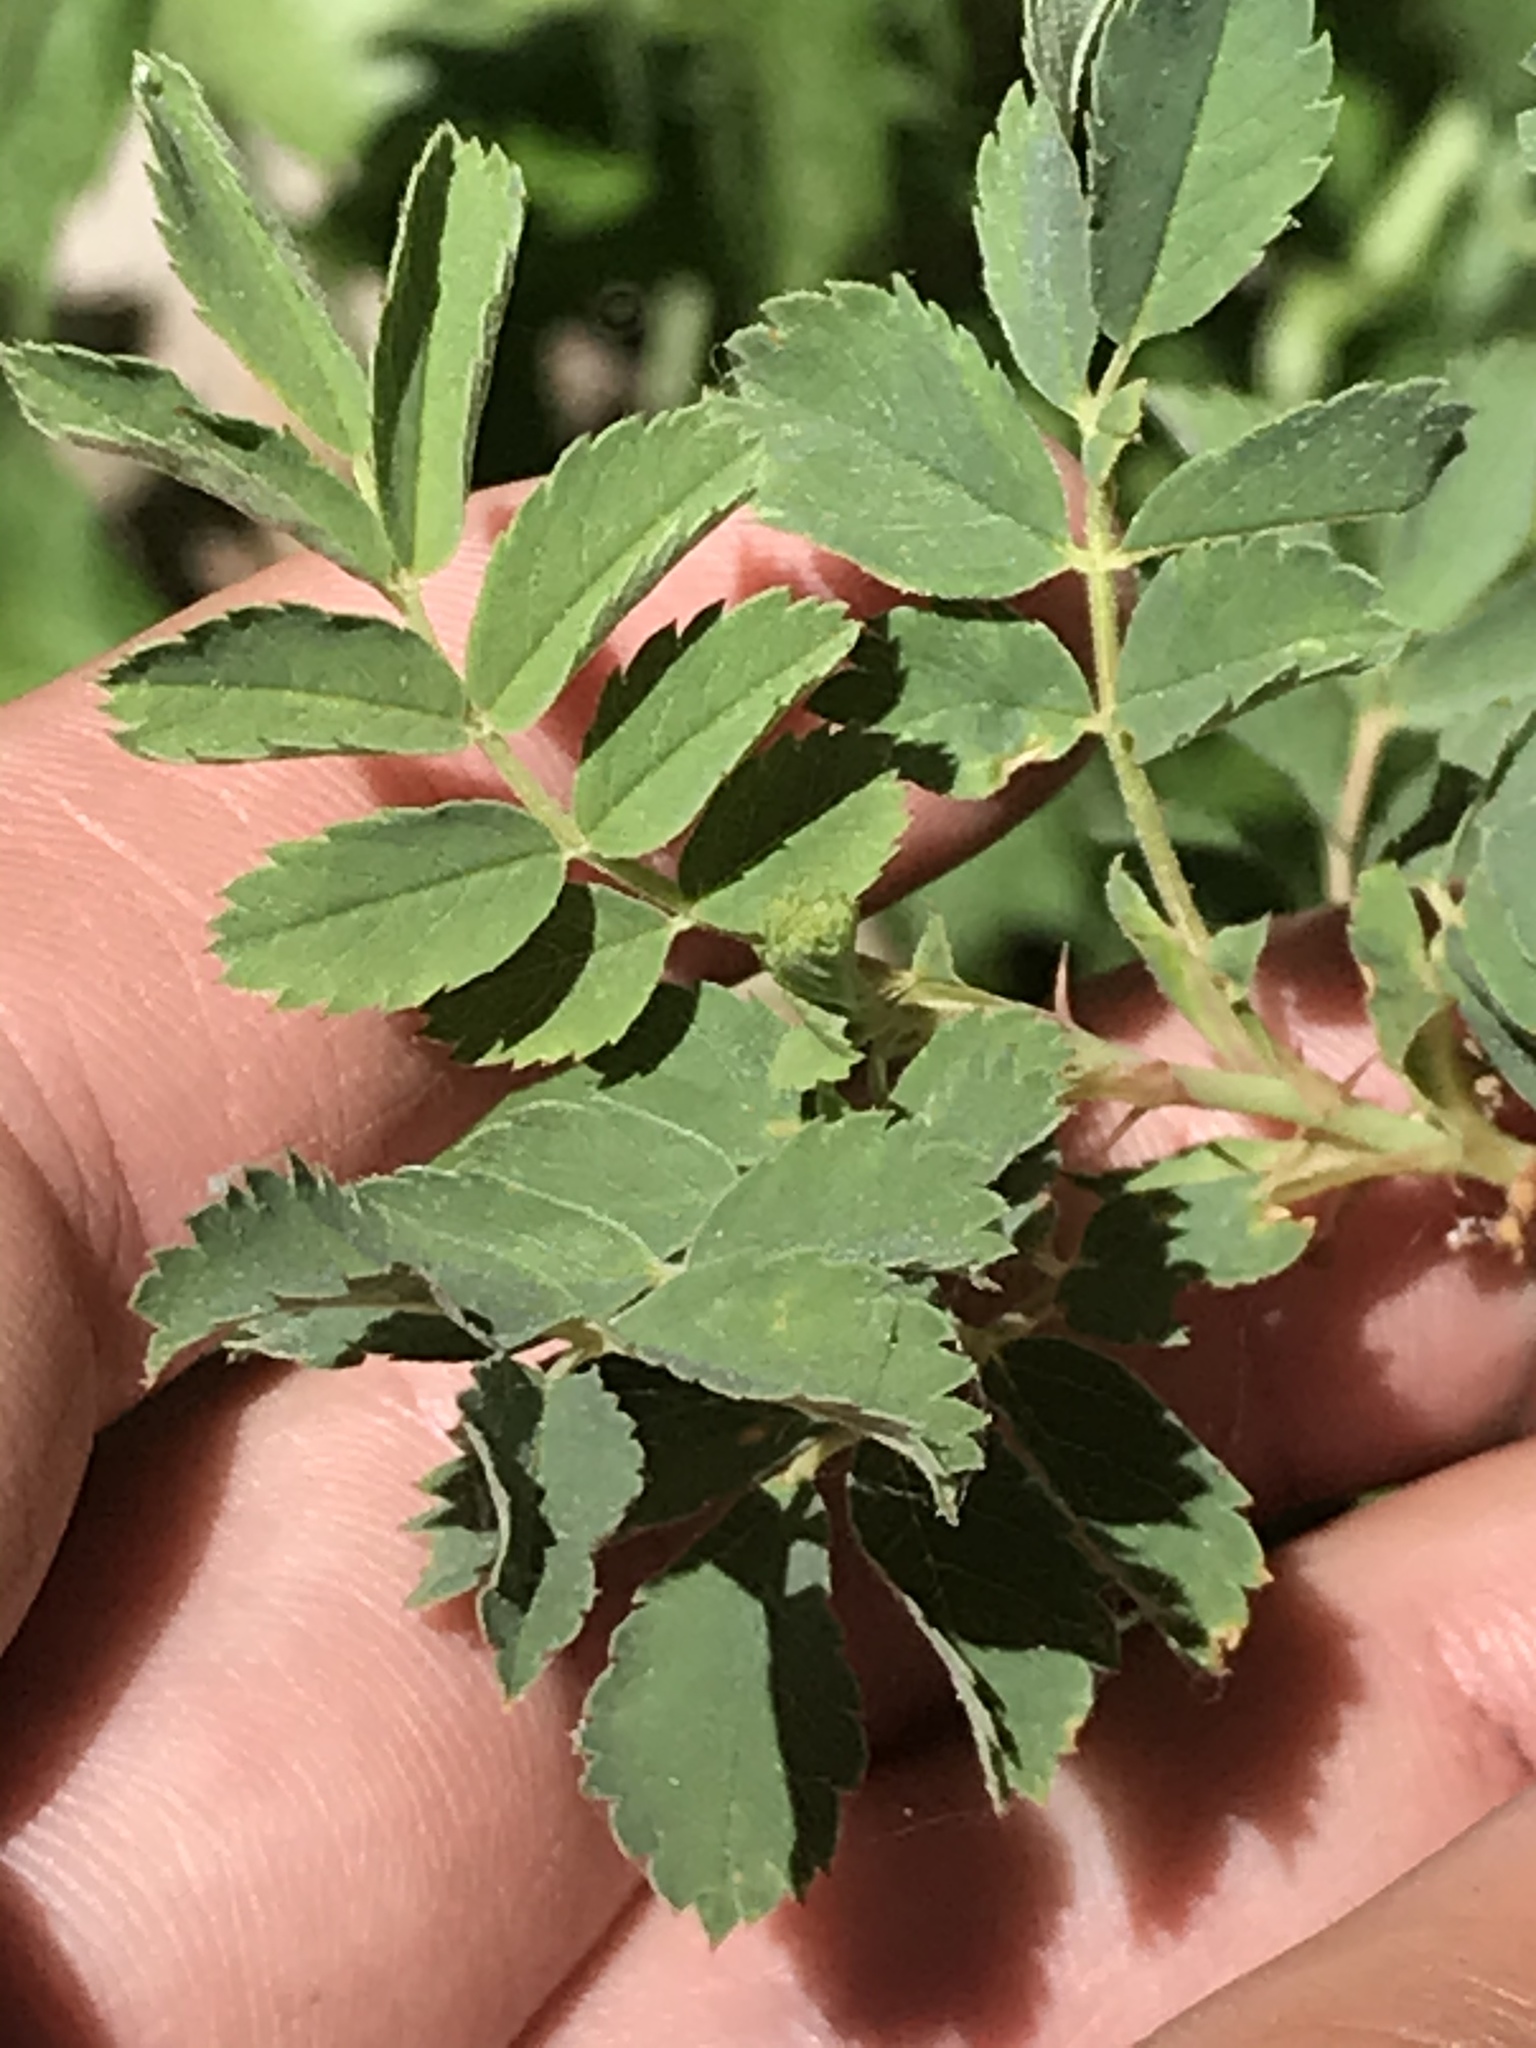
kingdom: Plantae
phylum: Tracheophyta
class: Magnoliopsida
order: Rosales
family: Rosaceae
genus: Rosa
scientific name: Rosa woodsii
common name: Woods's rose
